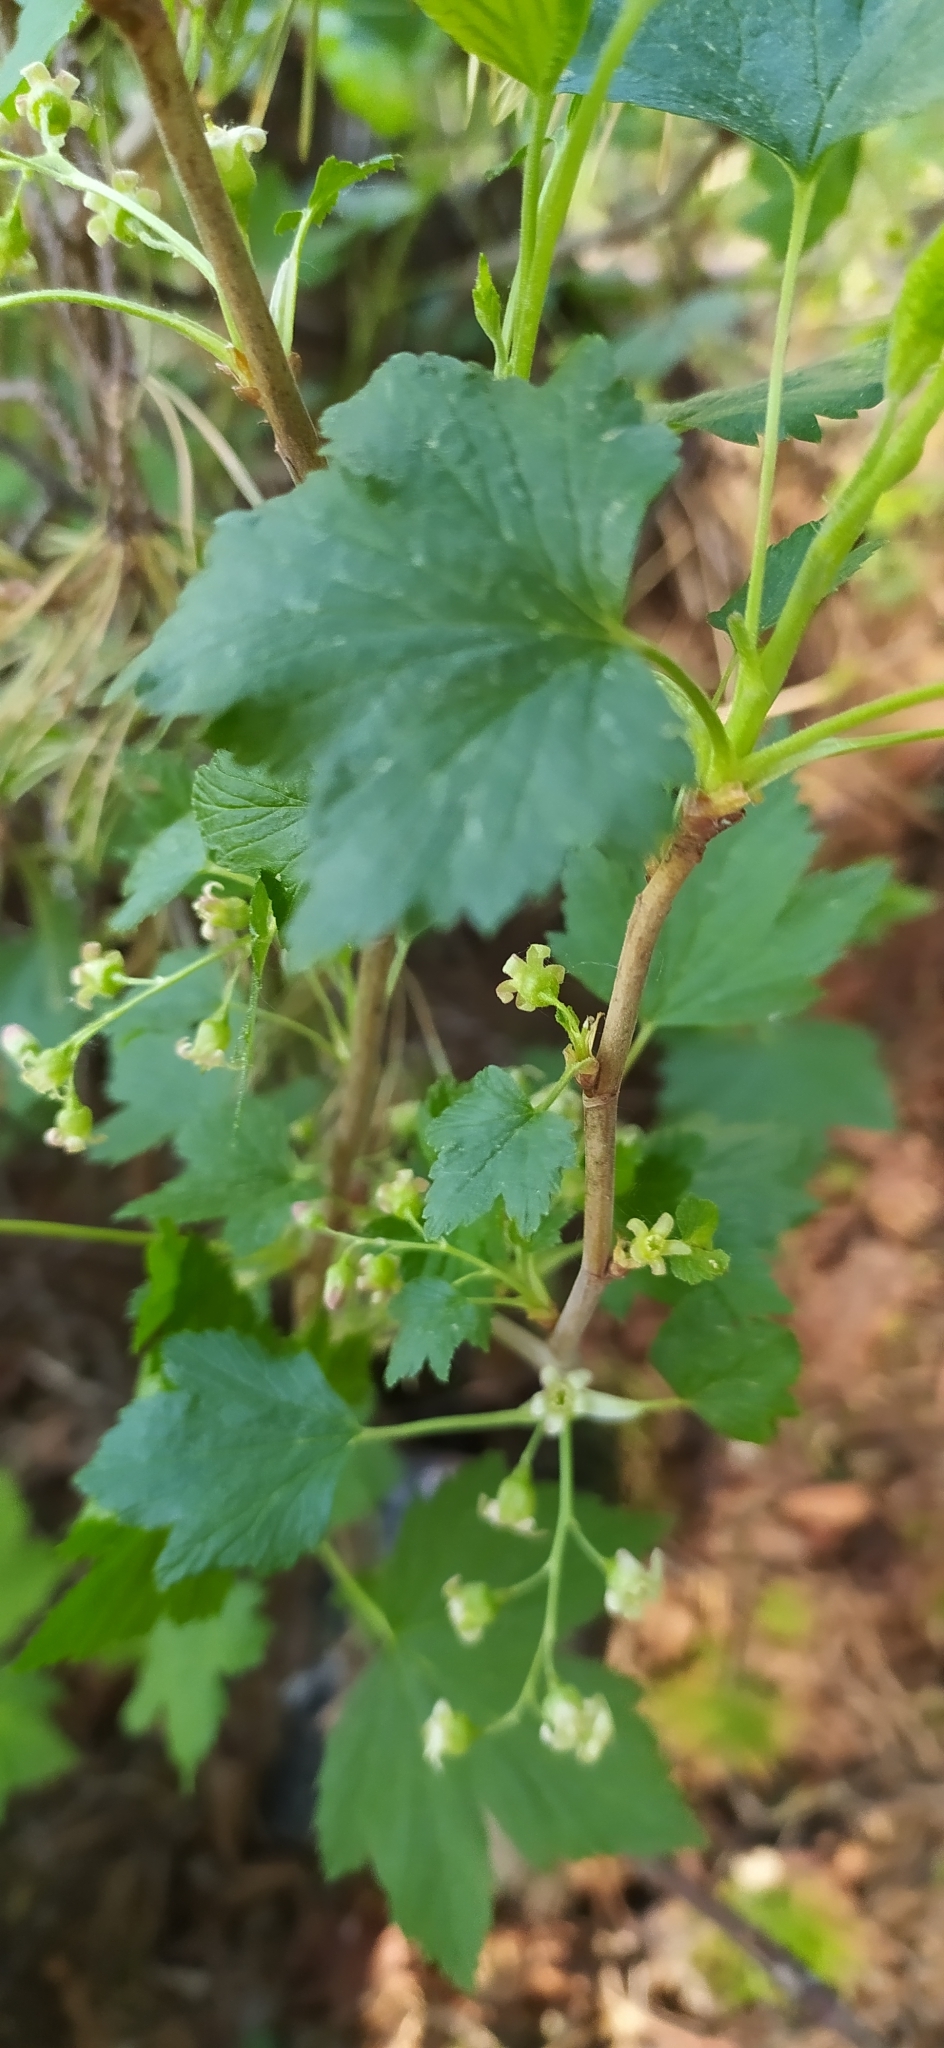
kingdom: Plantae
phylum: Tracheophyta
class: Magnoliopsida
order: Saxifragales
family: Grossulariaceae
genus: Ribes
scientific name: Ribes nigrum
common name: Black currant
